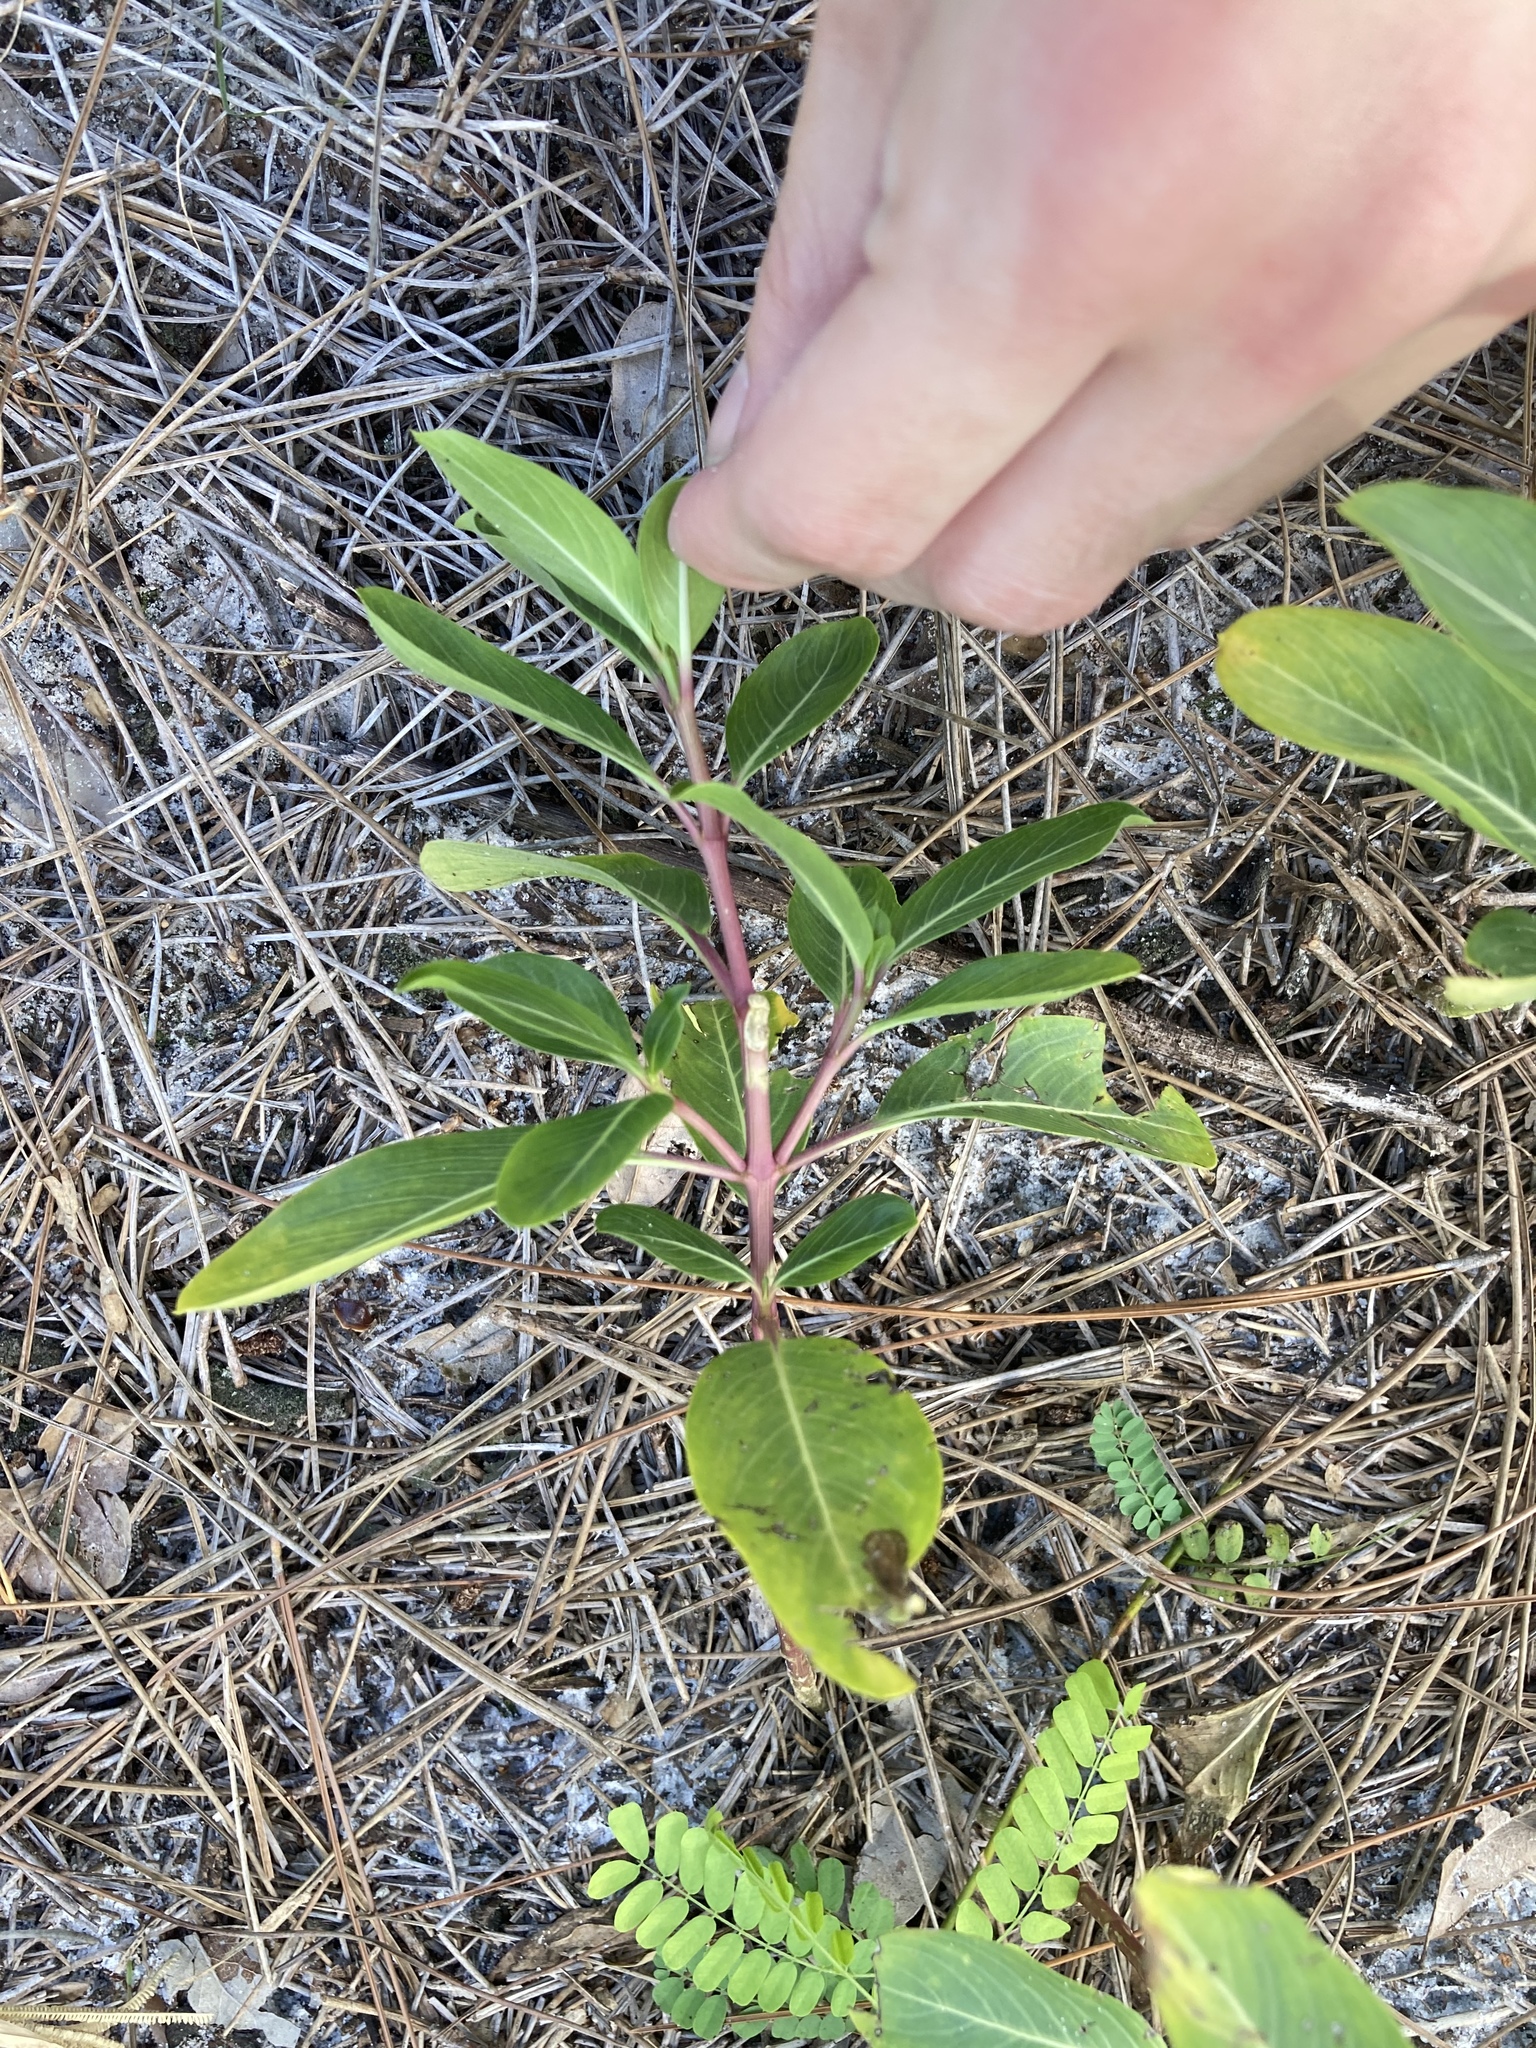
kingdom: Plantae
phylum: Tracheophyta
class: Magnoliopsida
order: Gentianales
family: Apocynaceae
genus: Catharanthus
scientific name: Catharanthus roseus
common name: Madagascar periwinkle
